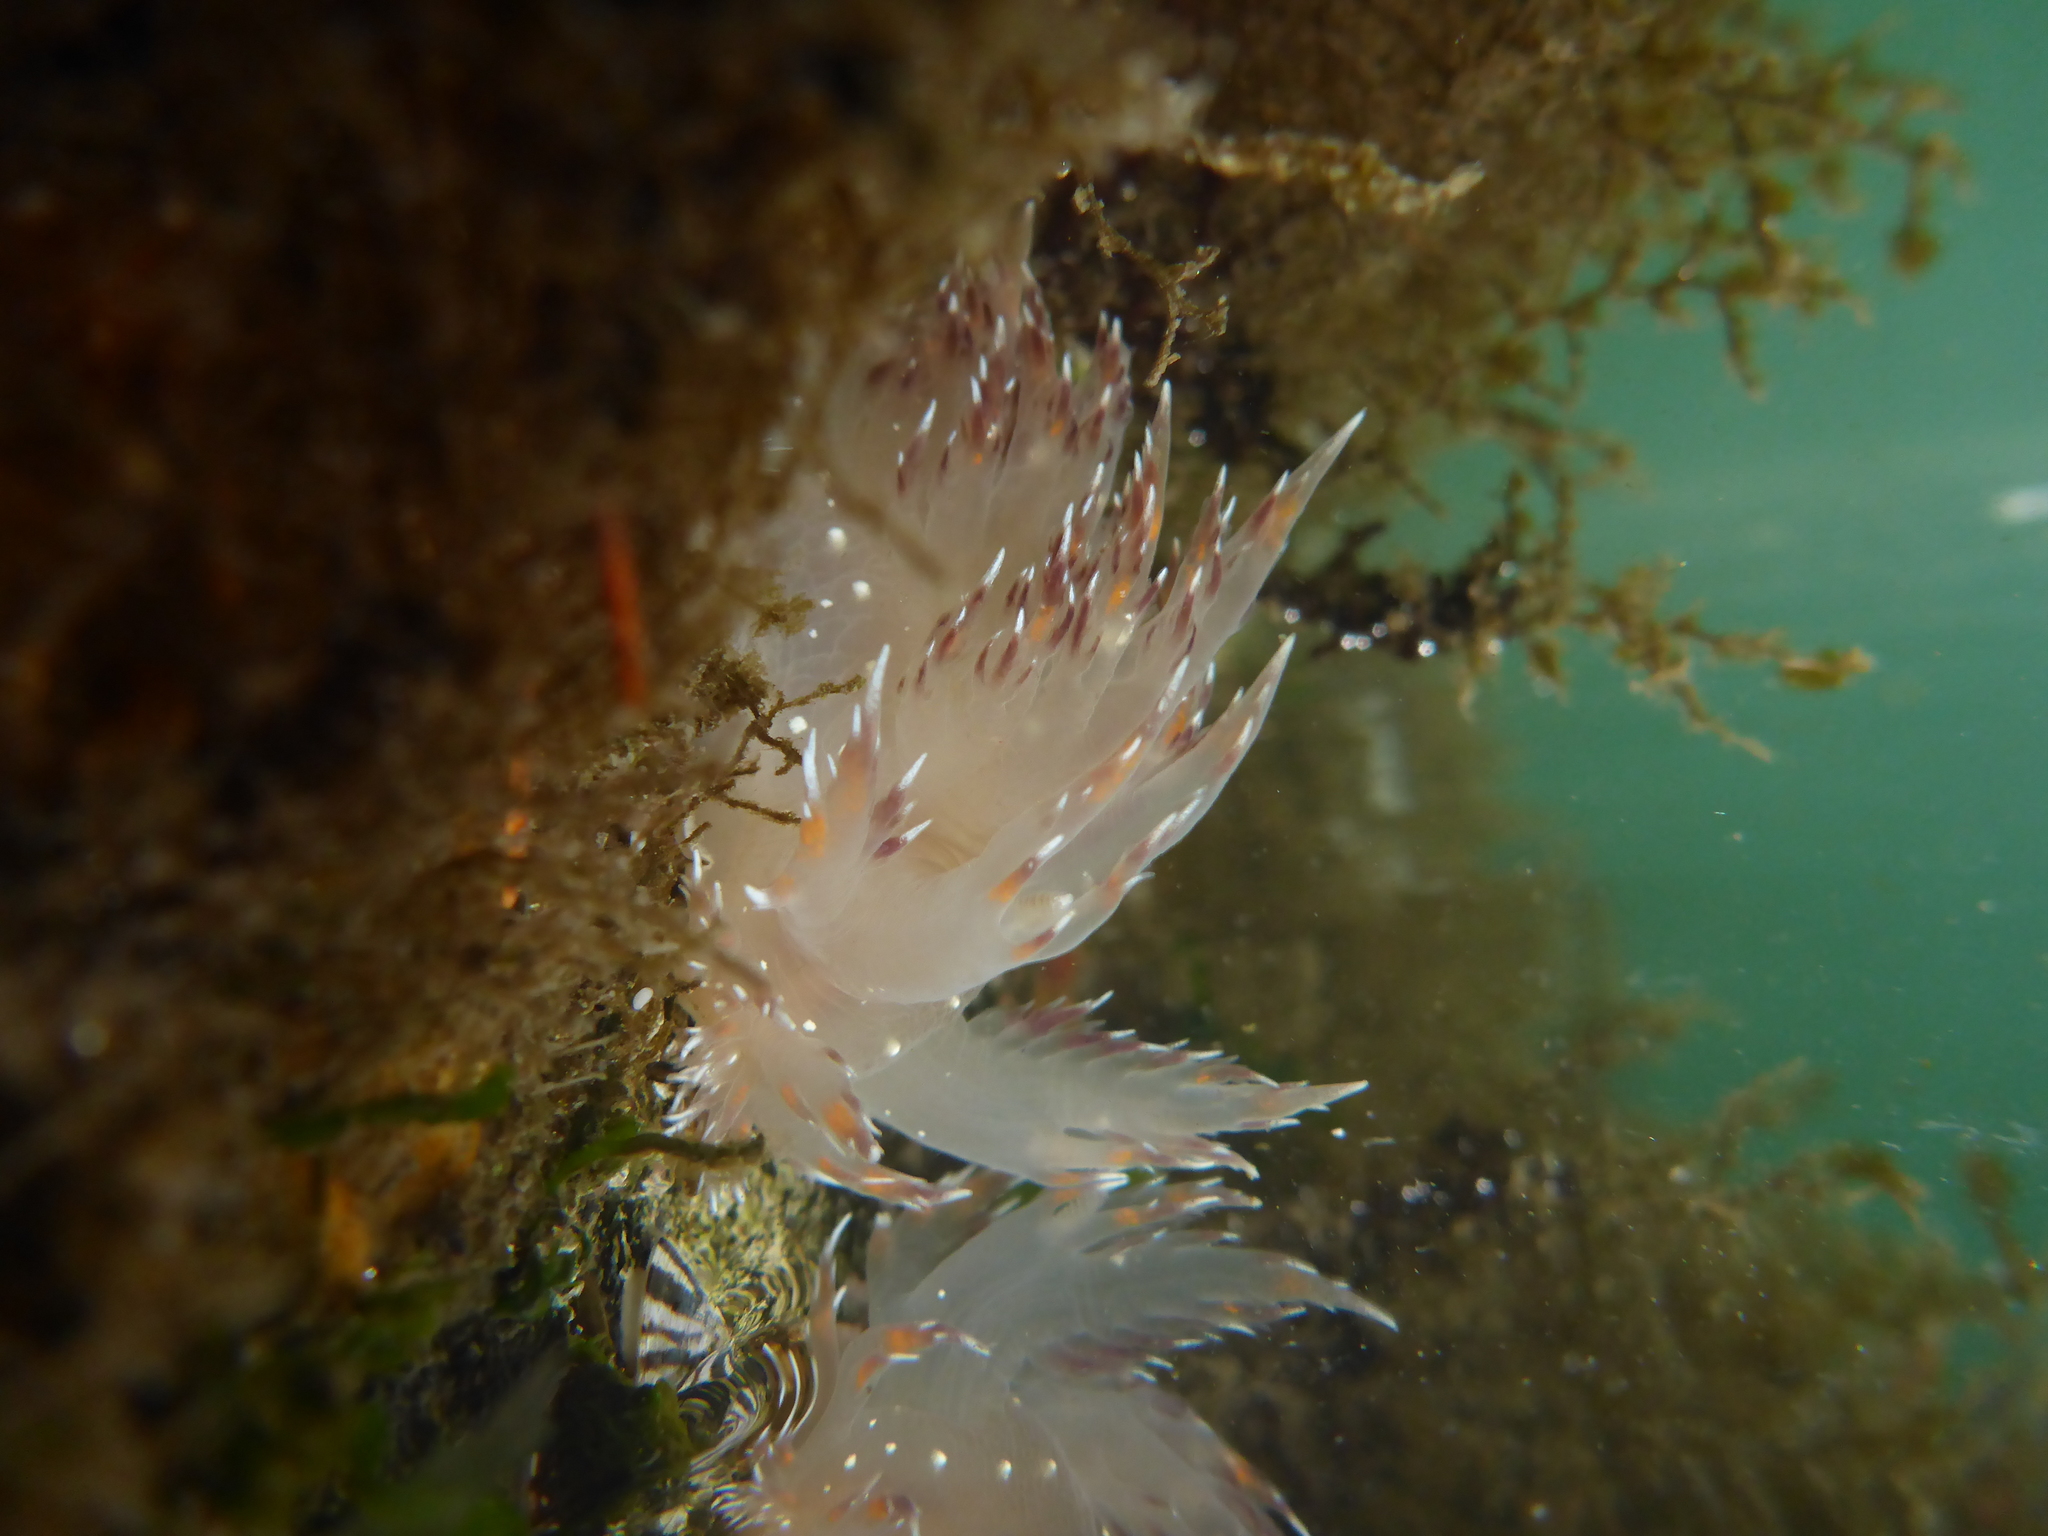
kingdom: Animalia
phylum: Mollusca
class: Gastropoda
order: Nudibranchia
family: Dendronotidae
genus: Dendronotus
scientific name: Dendronotus iris
